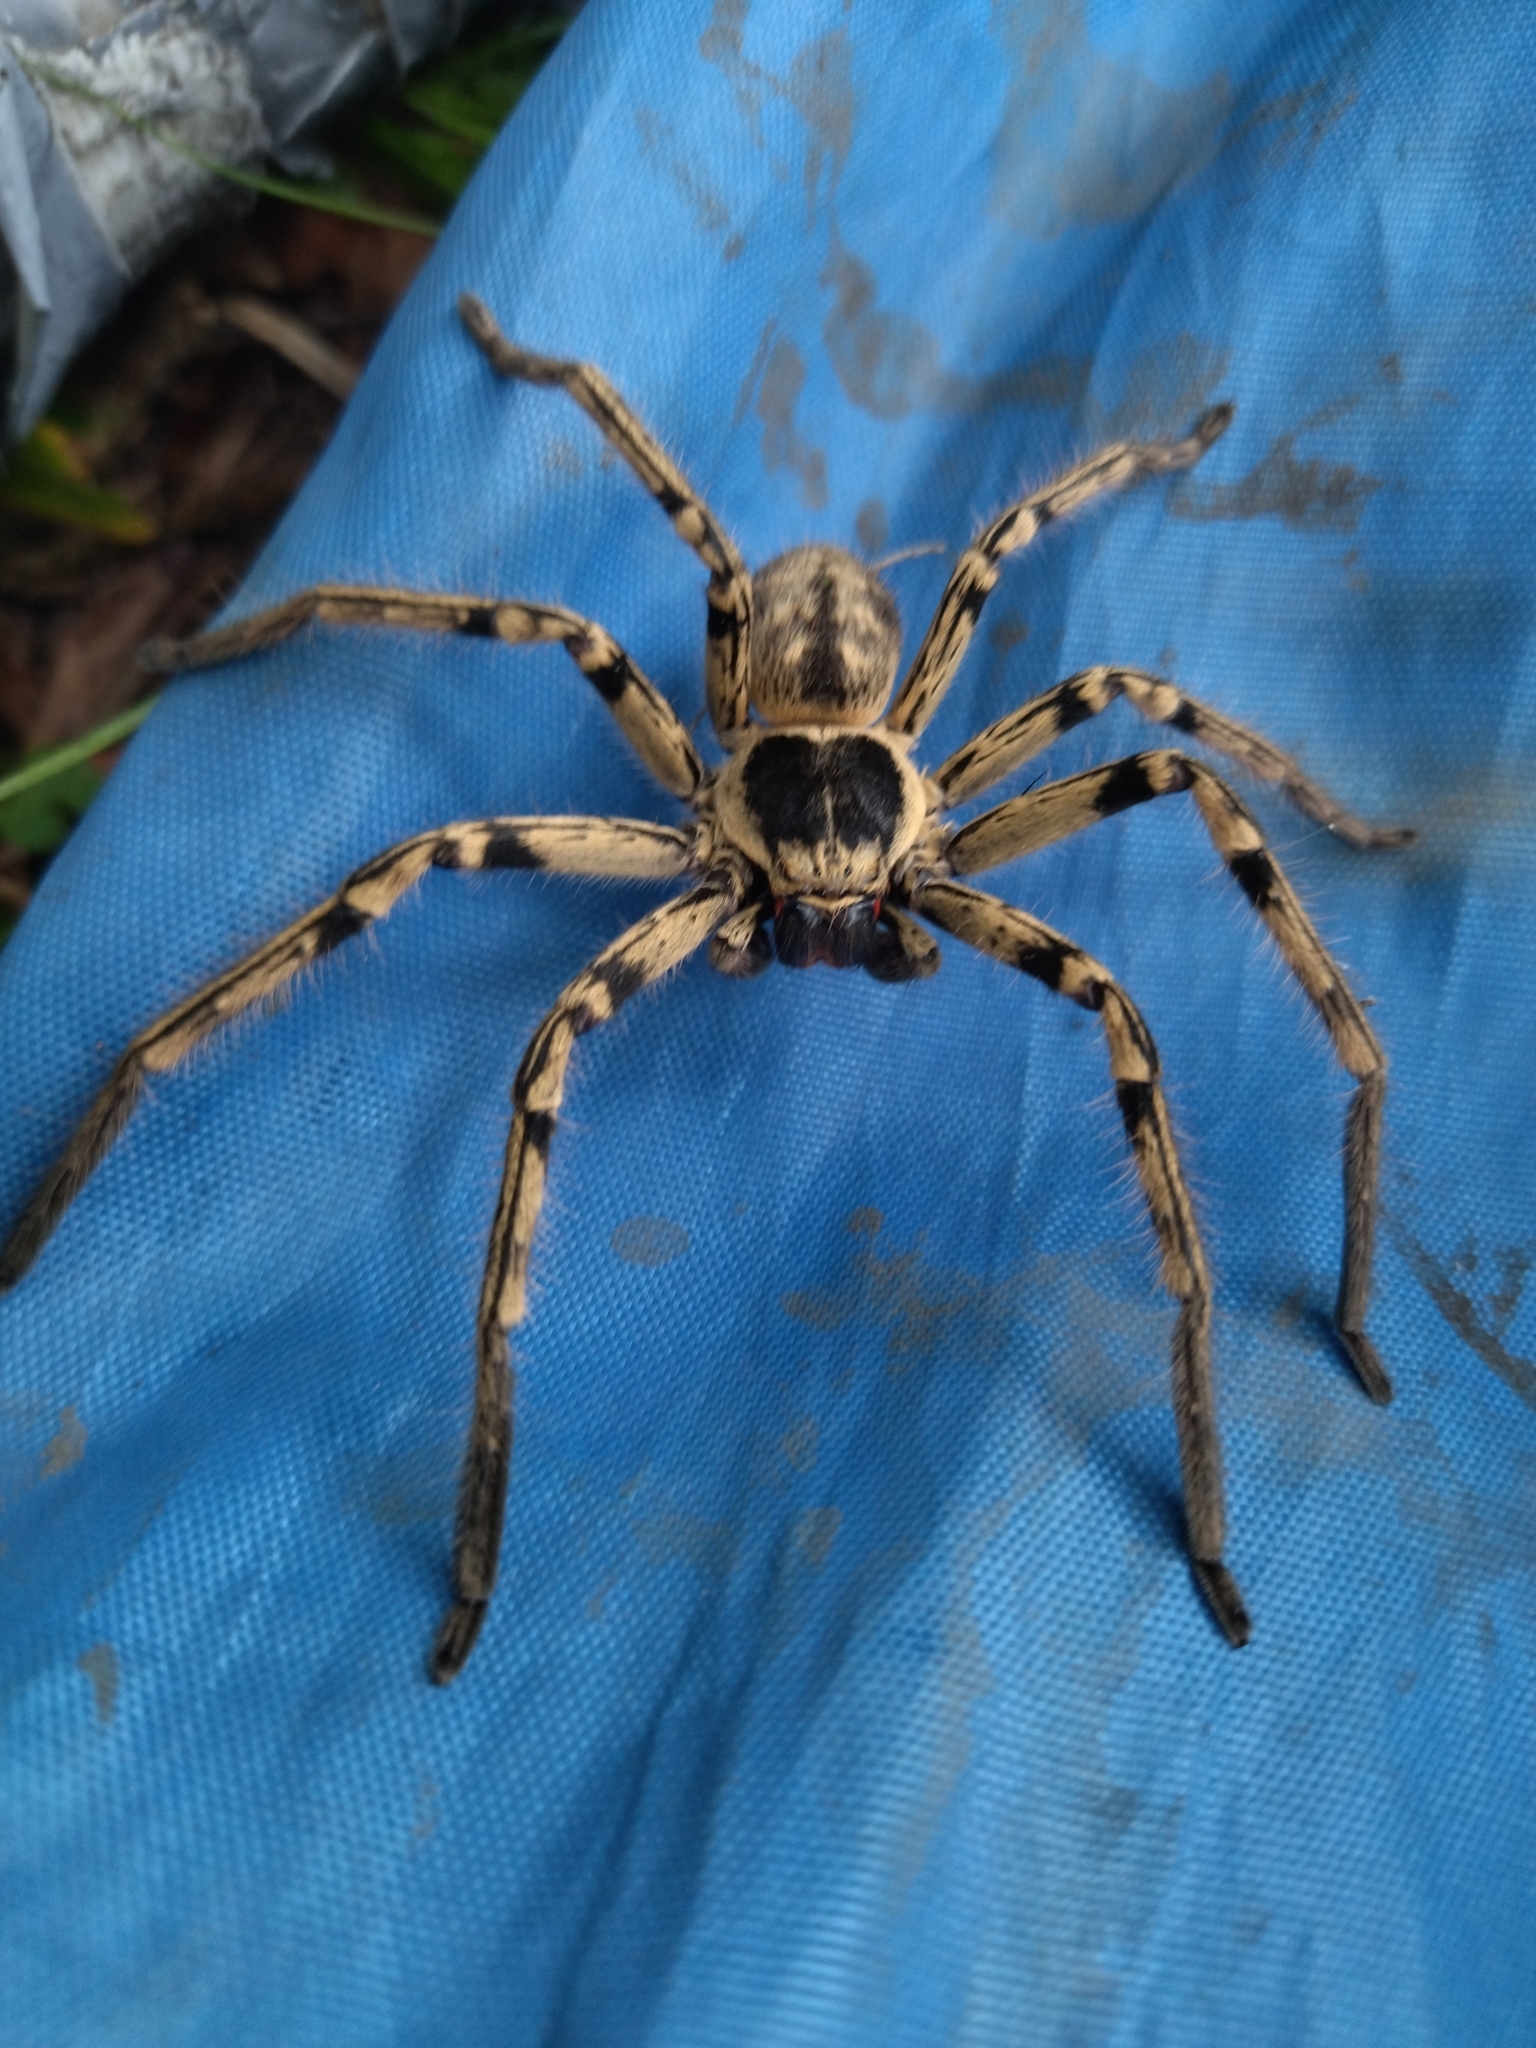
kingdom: Animalia
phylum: Arthropoda
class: Arachnida
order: Araneae
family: Sparassidae
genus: Polybetes
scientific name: Polybetes pythagoricus
